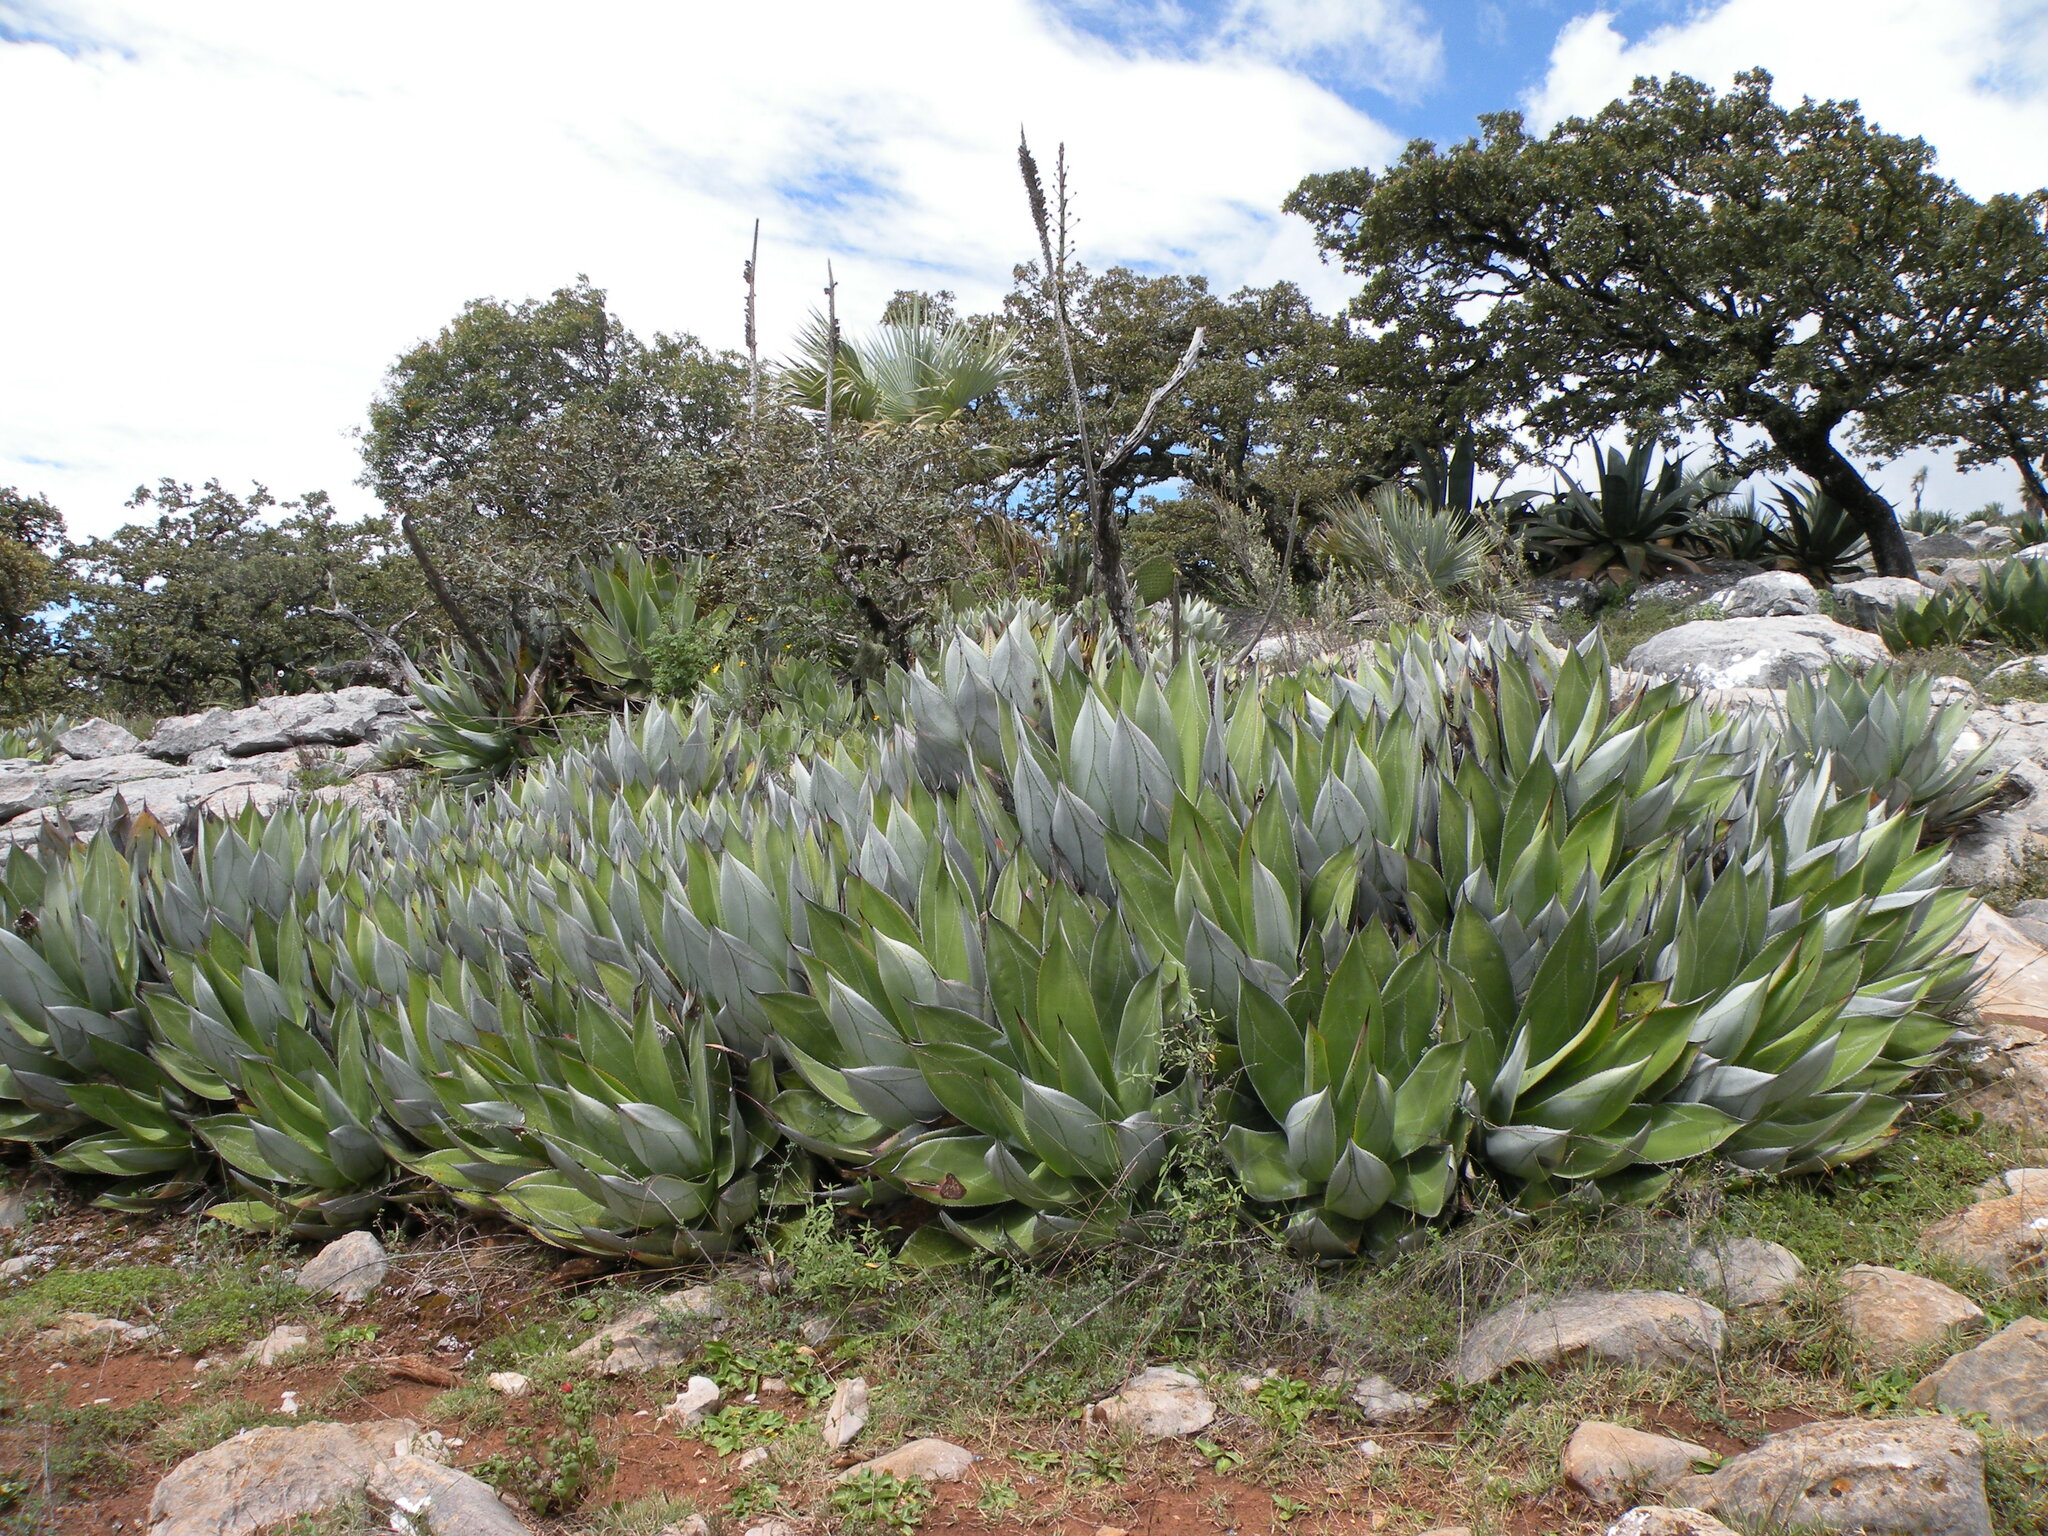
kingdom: Plantae
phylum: Tracheophyta
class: Liliopsida
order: Asparagales
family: Asparagaceae
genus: Agave
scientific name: Agave
